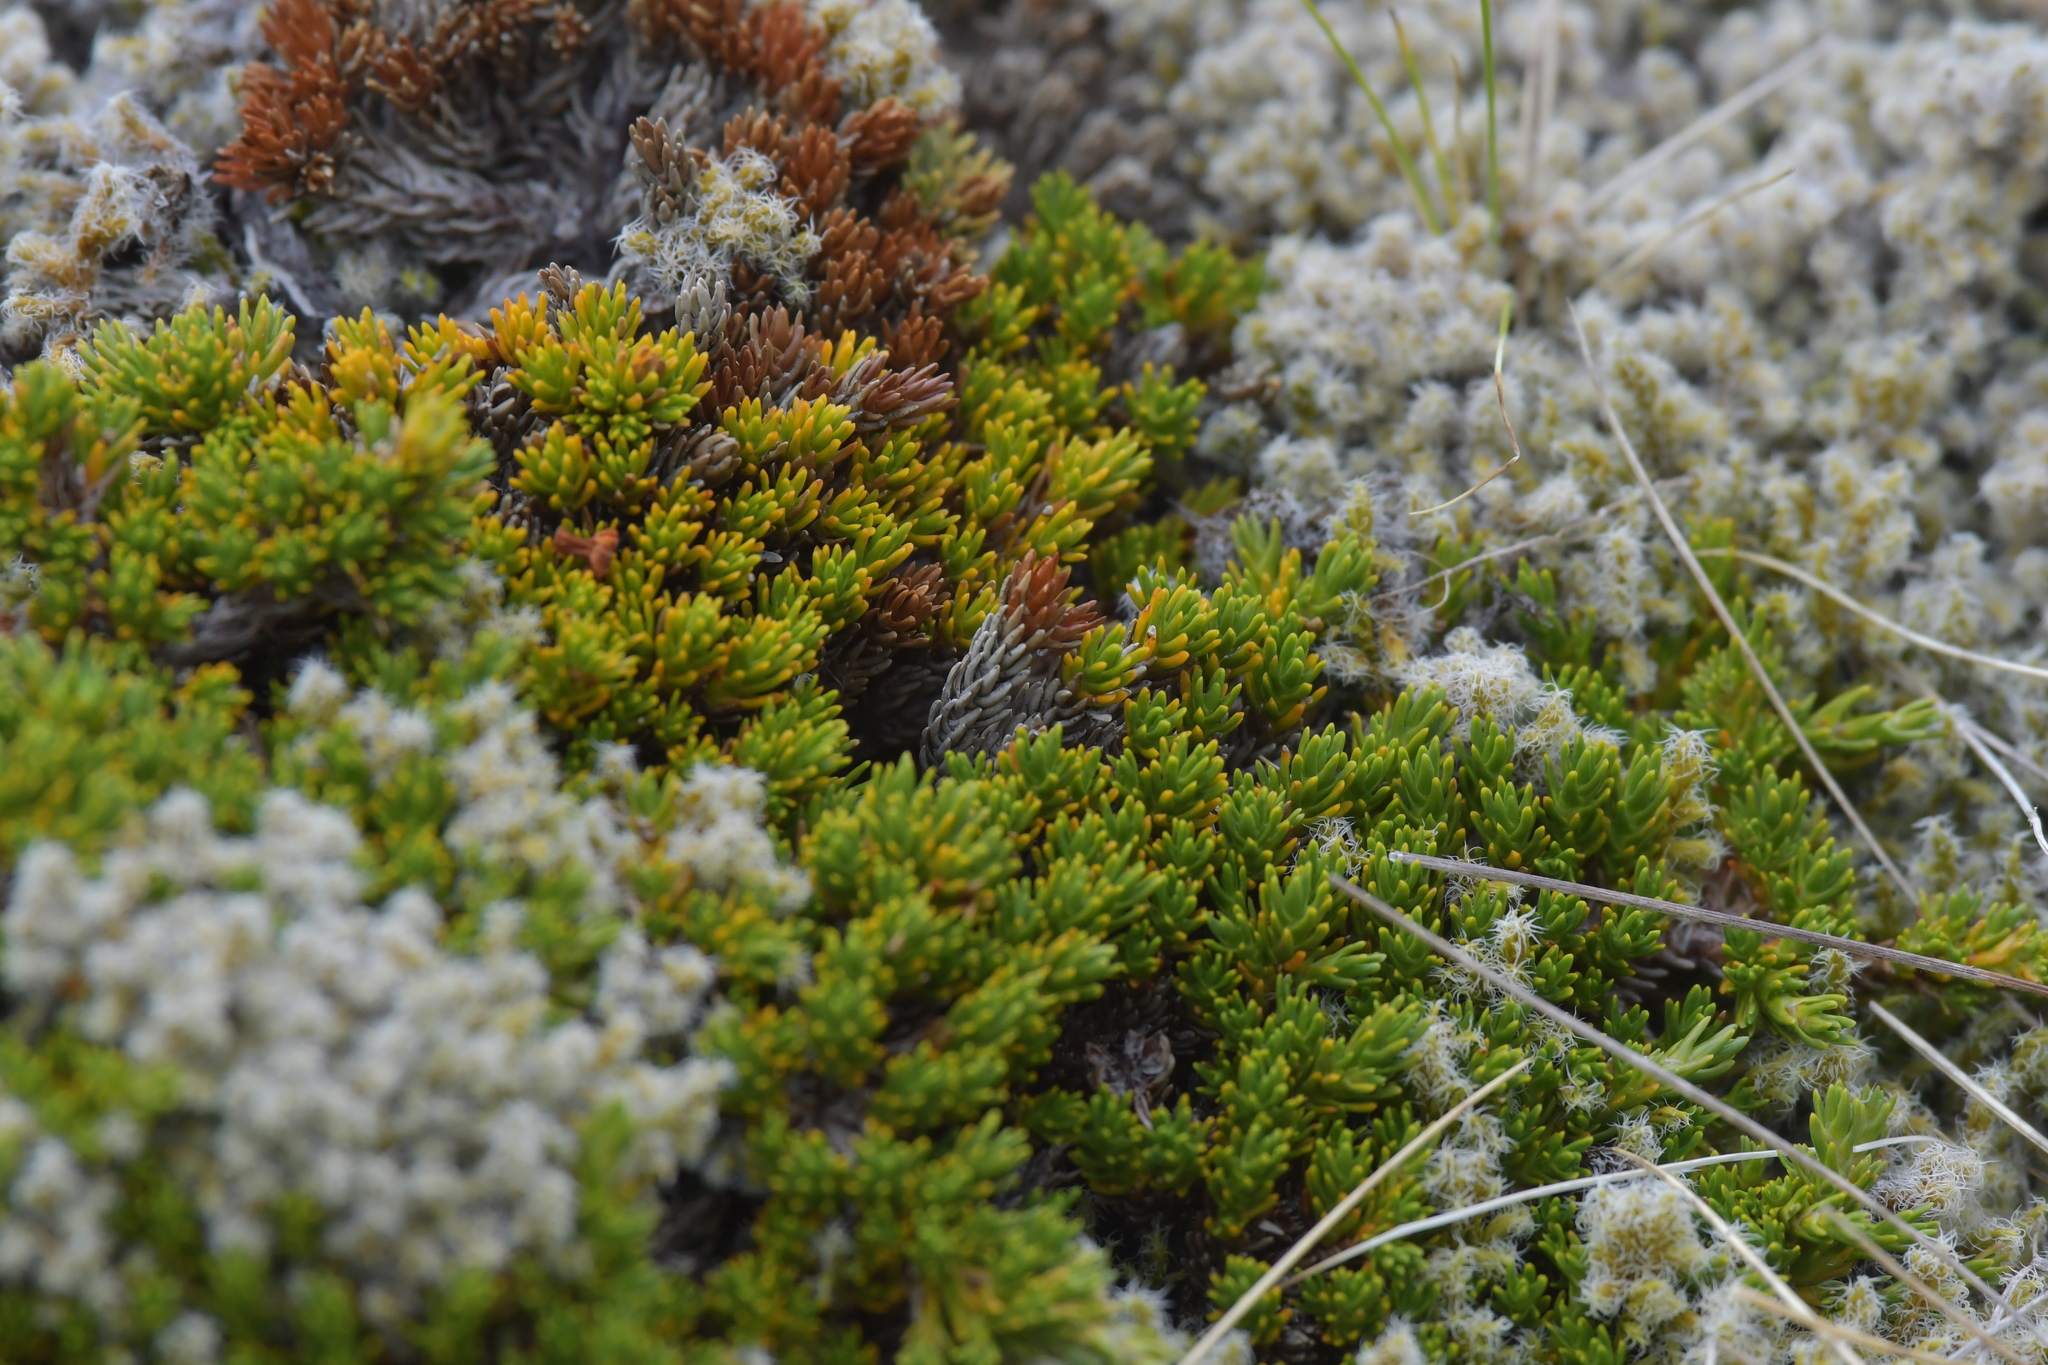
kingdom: Plantae
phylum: Tracheophyta
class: Magnoliopsida
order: Ericales
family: Ericaceae
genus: Dracophyllum
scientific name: Dracophyllum muscoides
